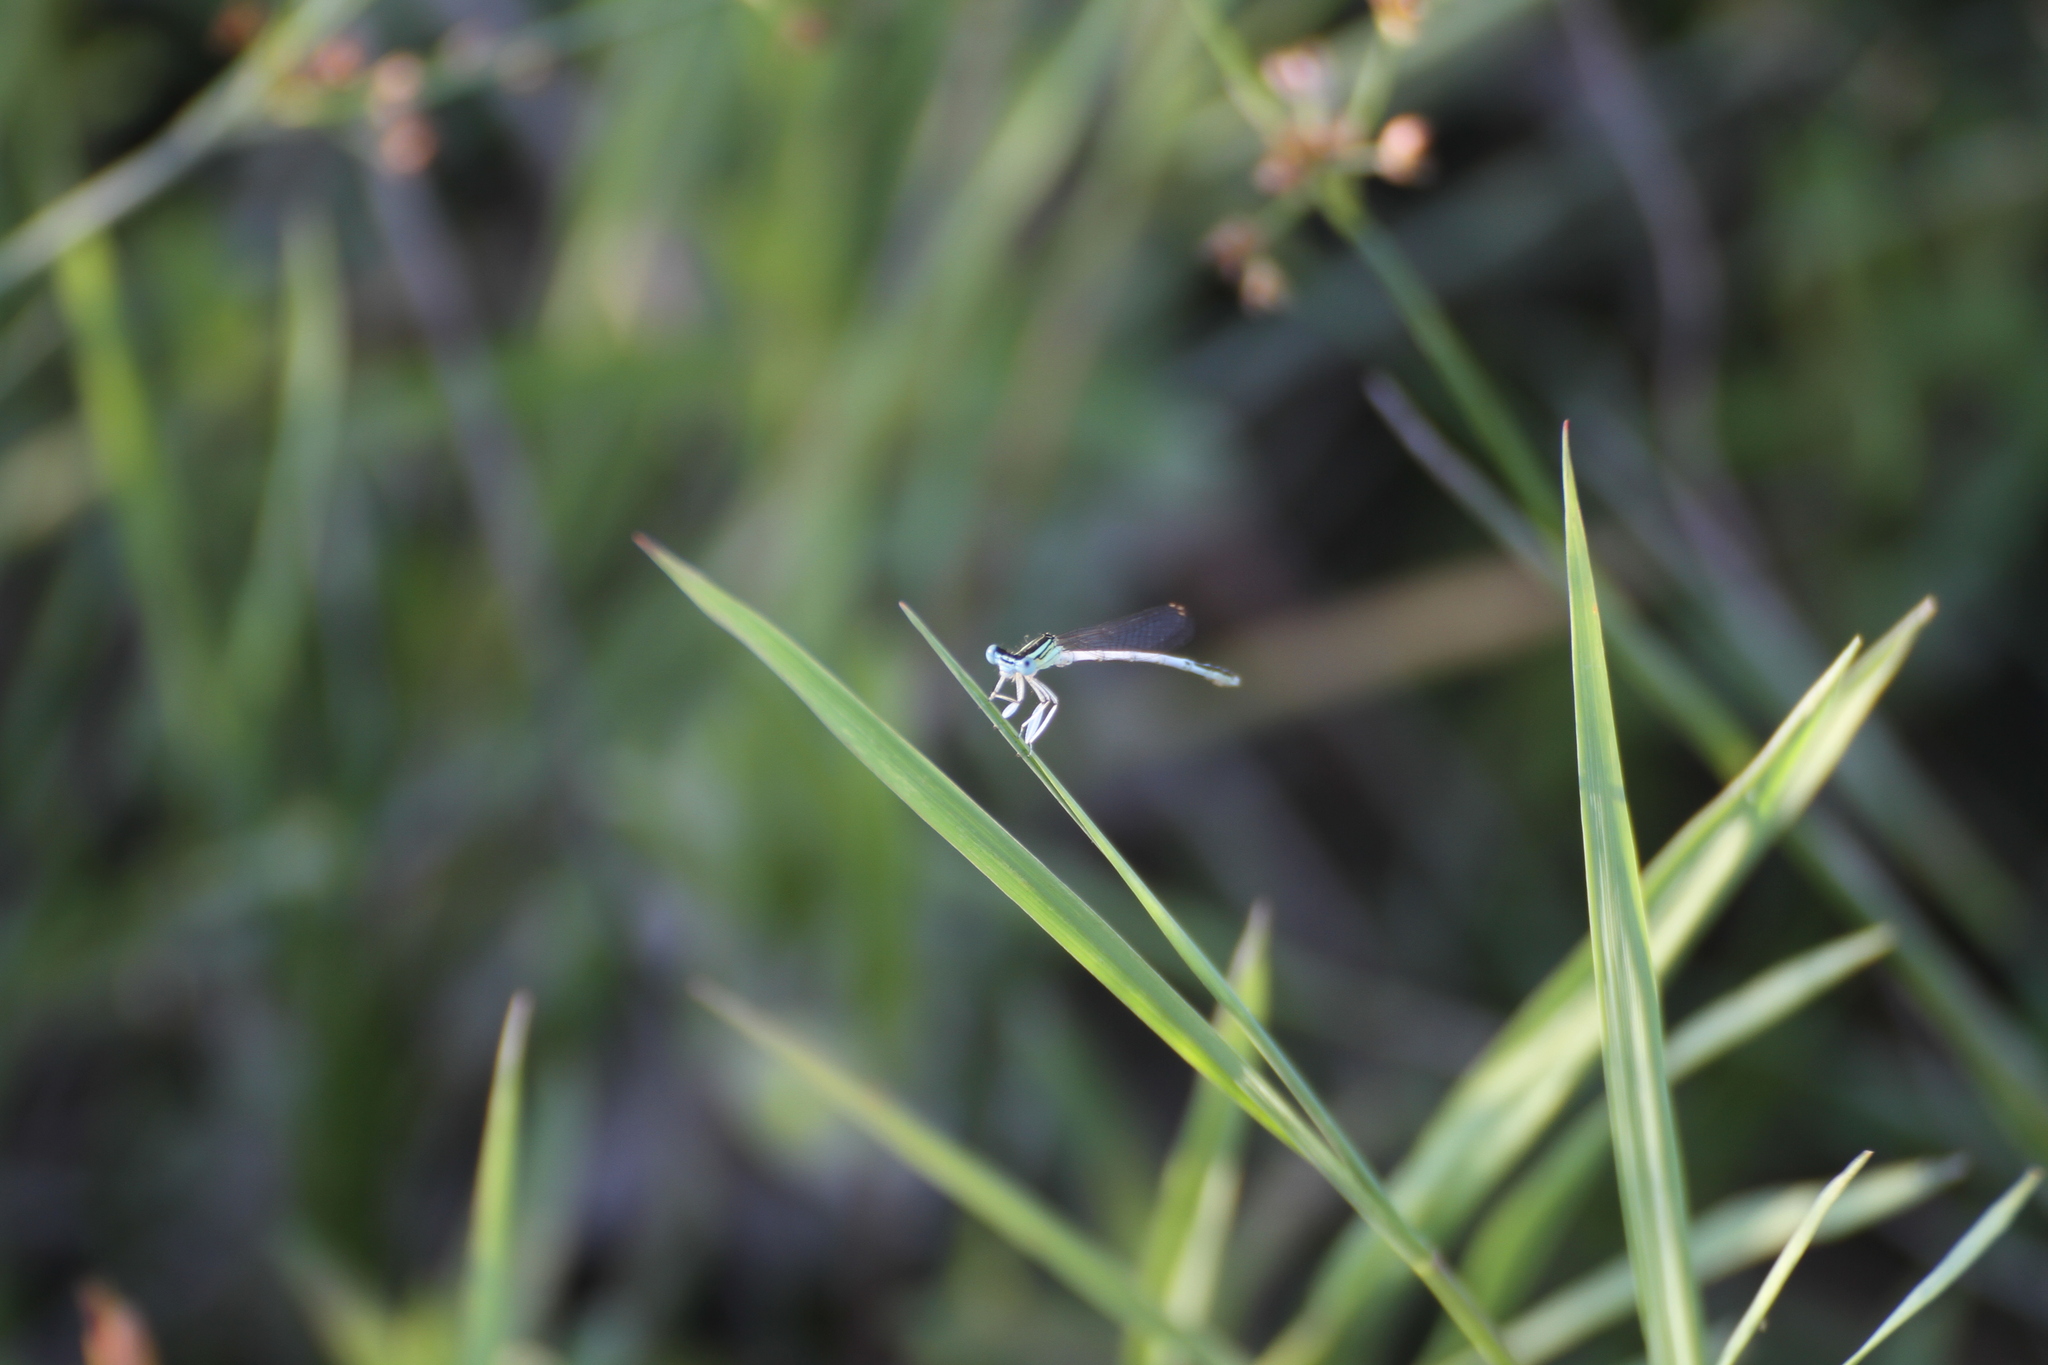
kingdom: Animalia
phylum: Arthropoda
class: Insecta
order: Odonata
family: Platycnemididae
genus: Platycnemis
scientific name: Platycnemis latipes
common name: White featherleg
